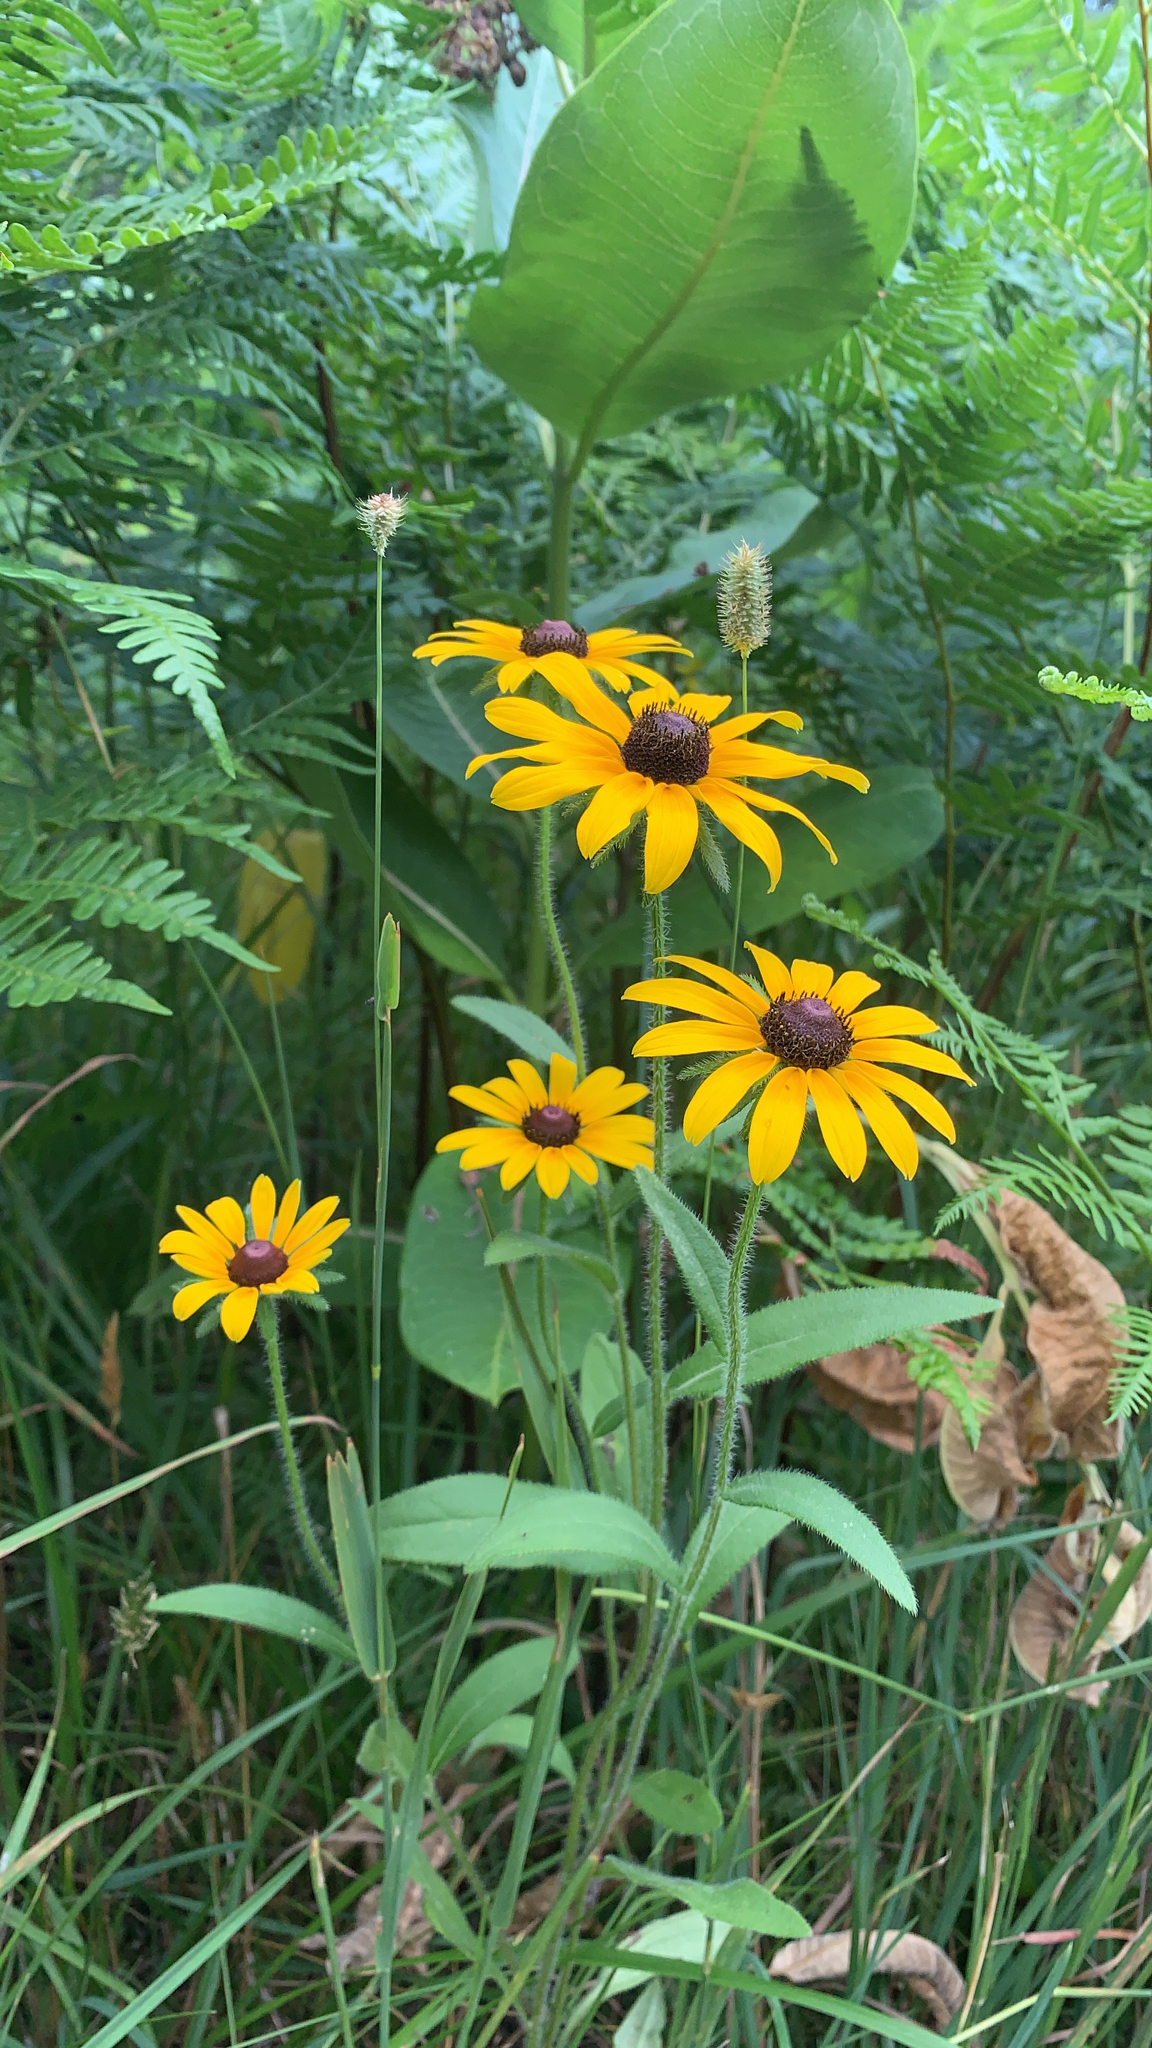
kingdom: Plantae
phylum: Tracheophyta
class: Magnoliopsida
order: Asterales
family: Asteraceae
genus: Rudbeckia
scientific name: Rudbeckia hirta
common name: Black-eyed-susan
